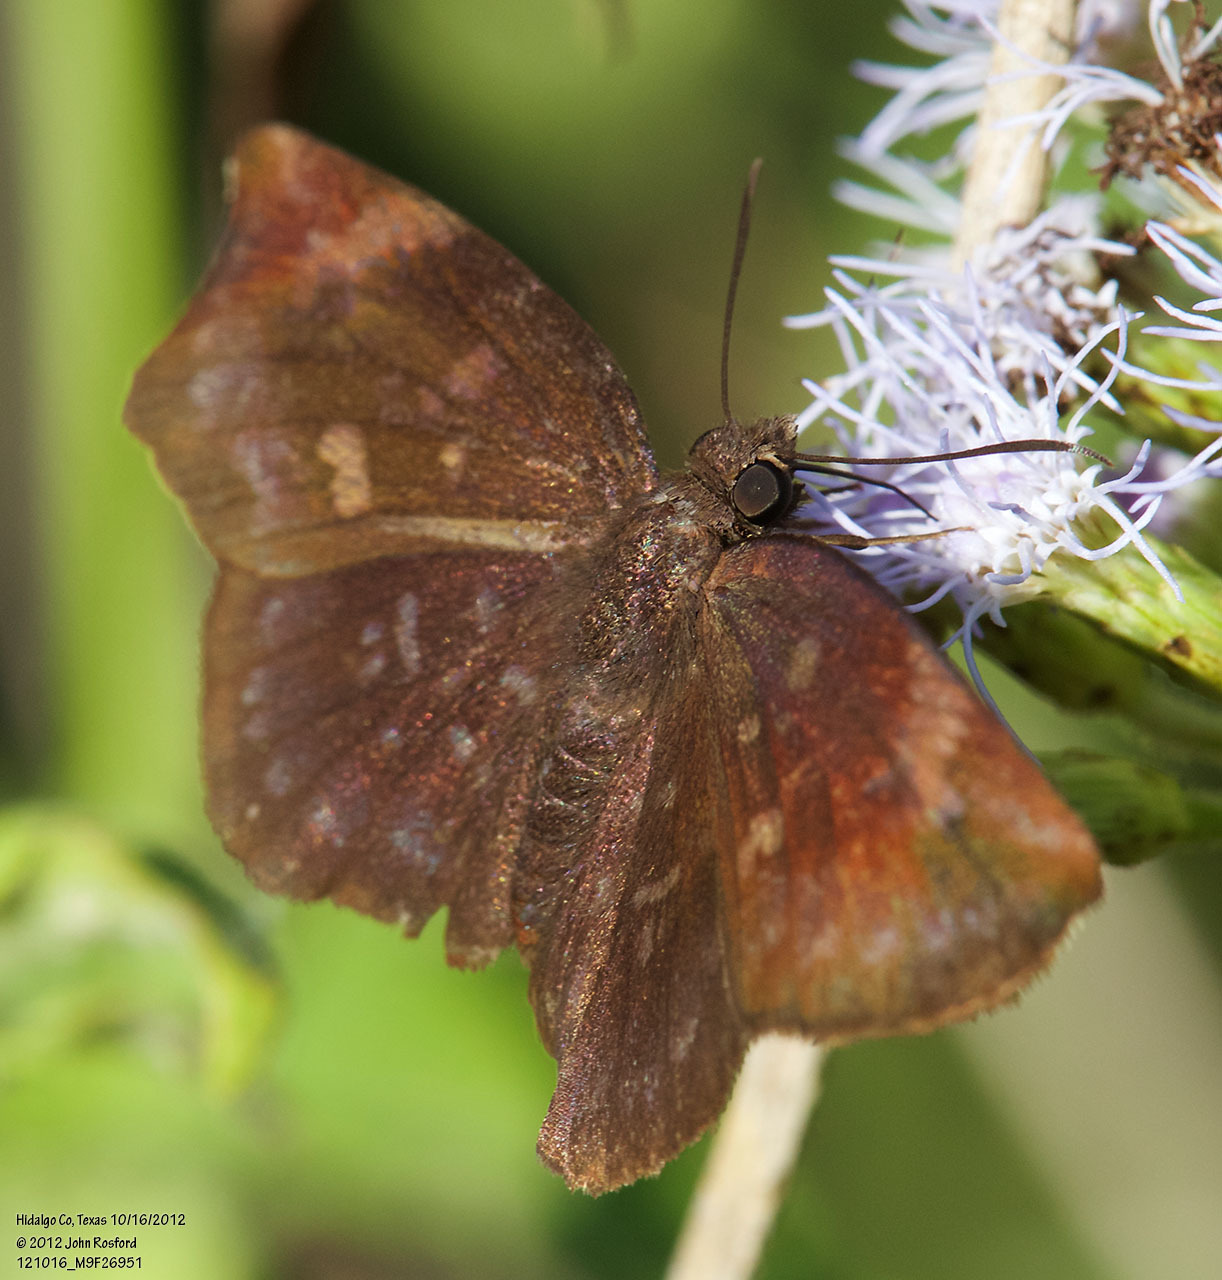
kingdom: Animalia
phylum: Arthropoda
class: Insecta
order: Lepidoptera
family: Hesperiidae
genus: Achlyodes
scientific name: Achlyodes thraso
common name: Sickle-winged skipper
